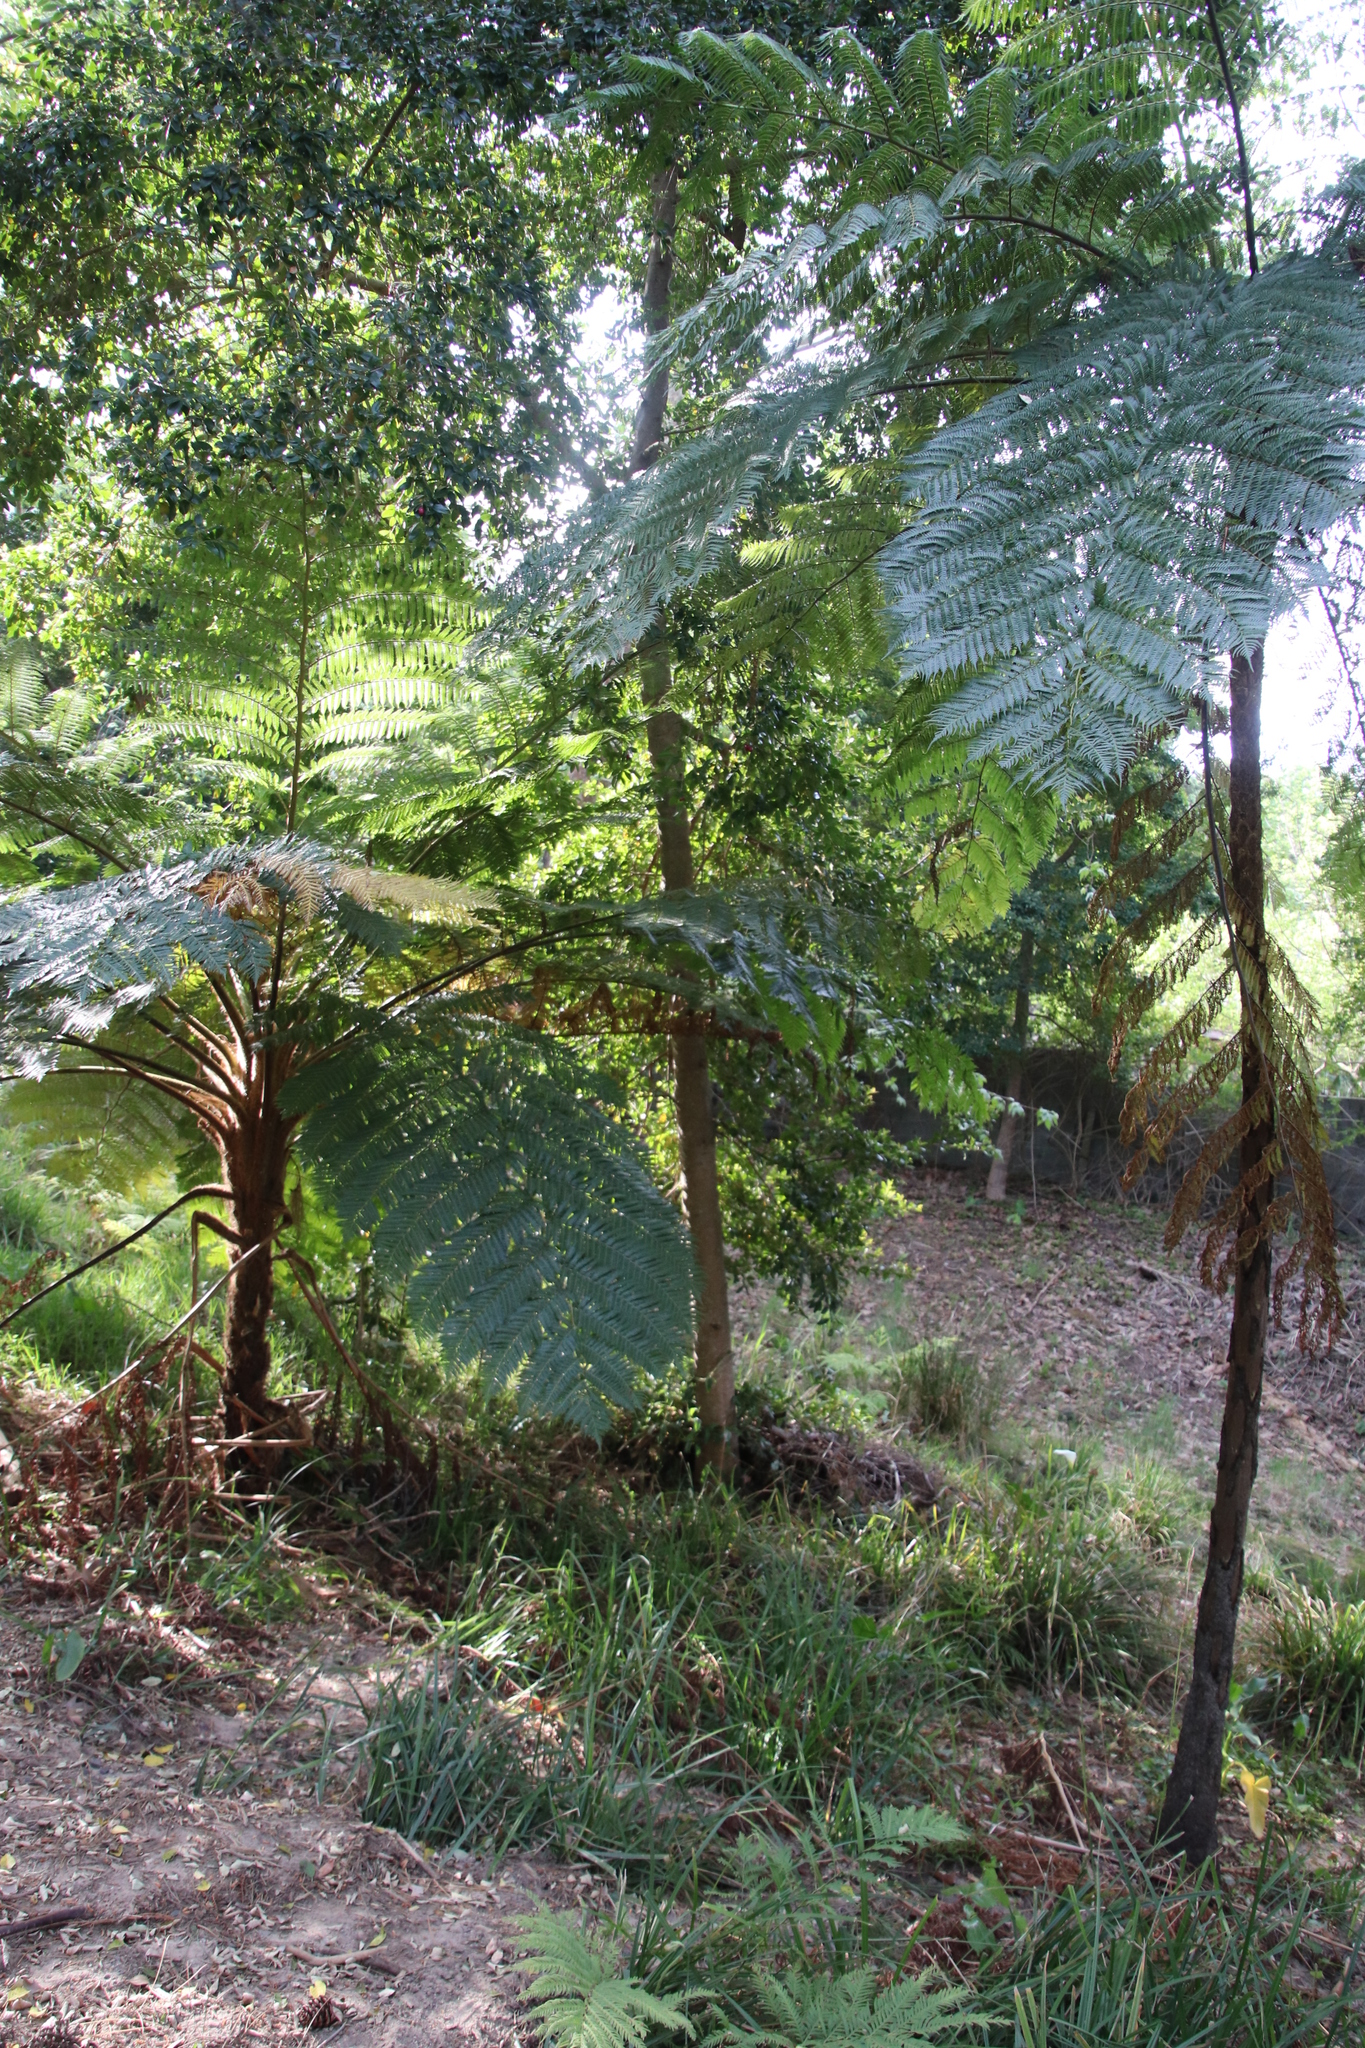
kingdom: Plantae
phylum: Tracheophyta
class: Polypodiopsida
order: Cyatheales
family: Cyatheaceae
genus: Sphaeropteris
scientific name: Sphaeropteris cooperi
